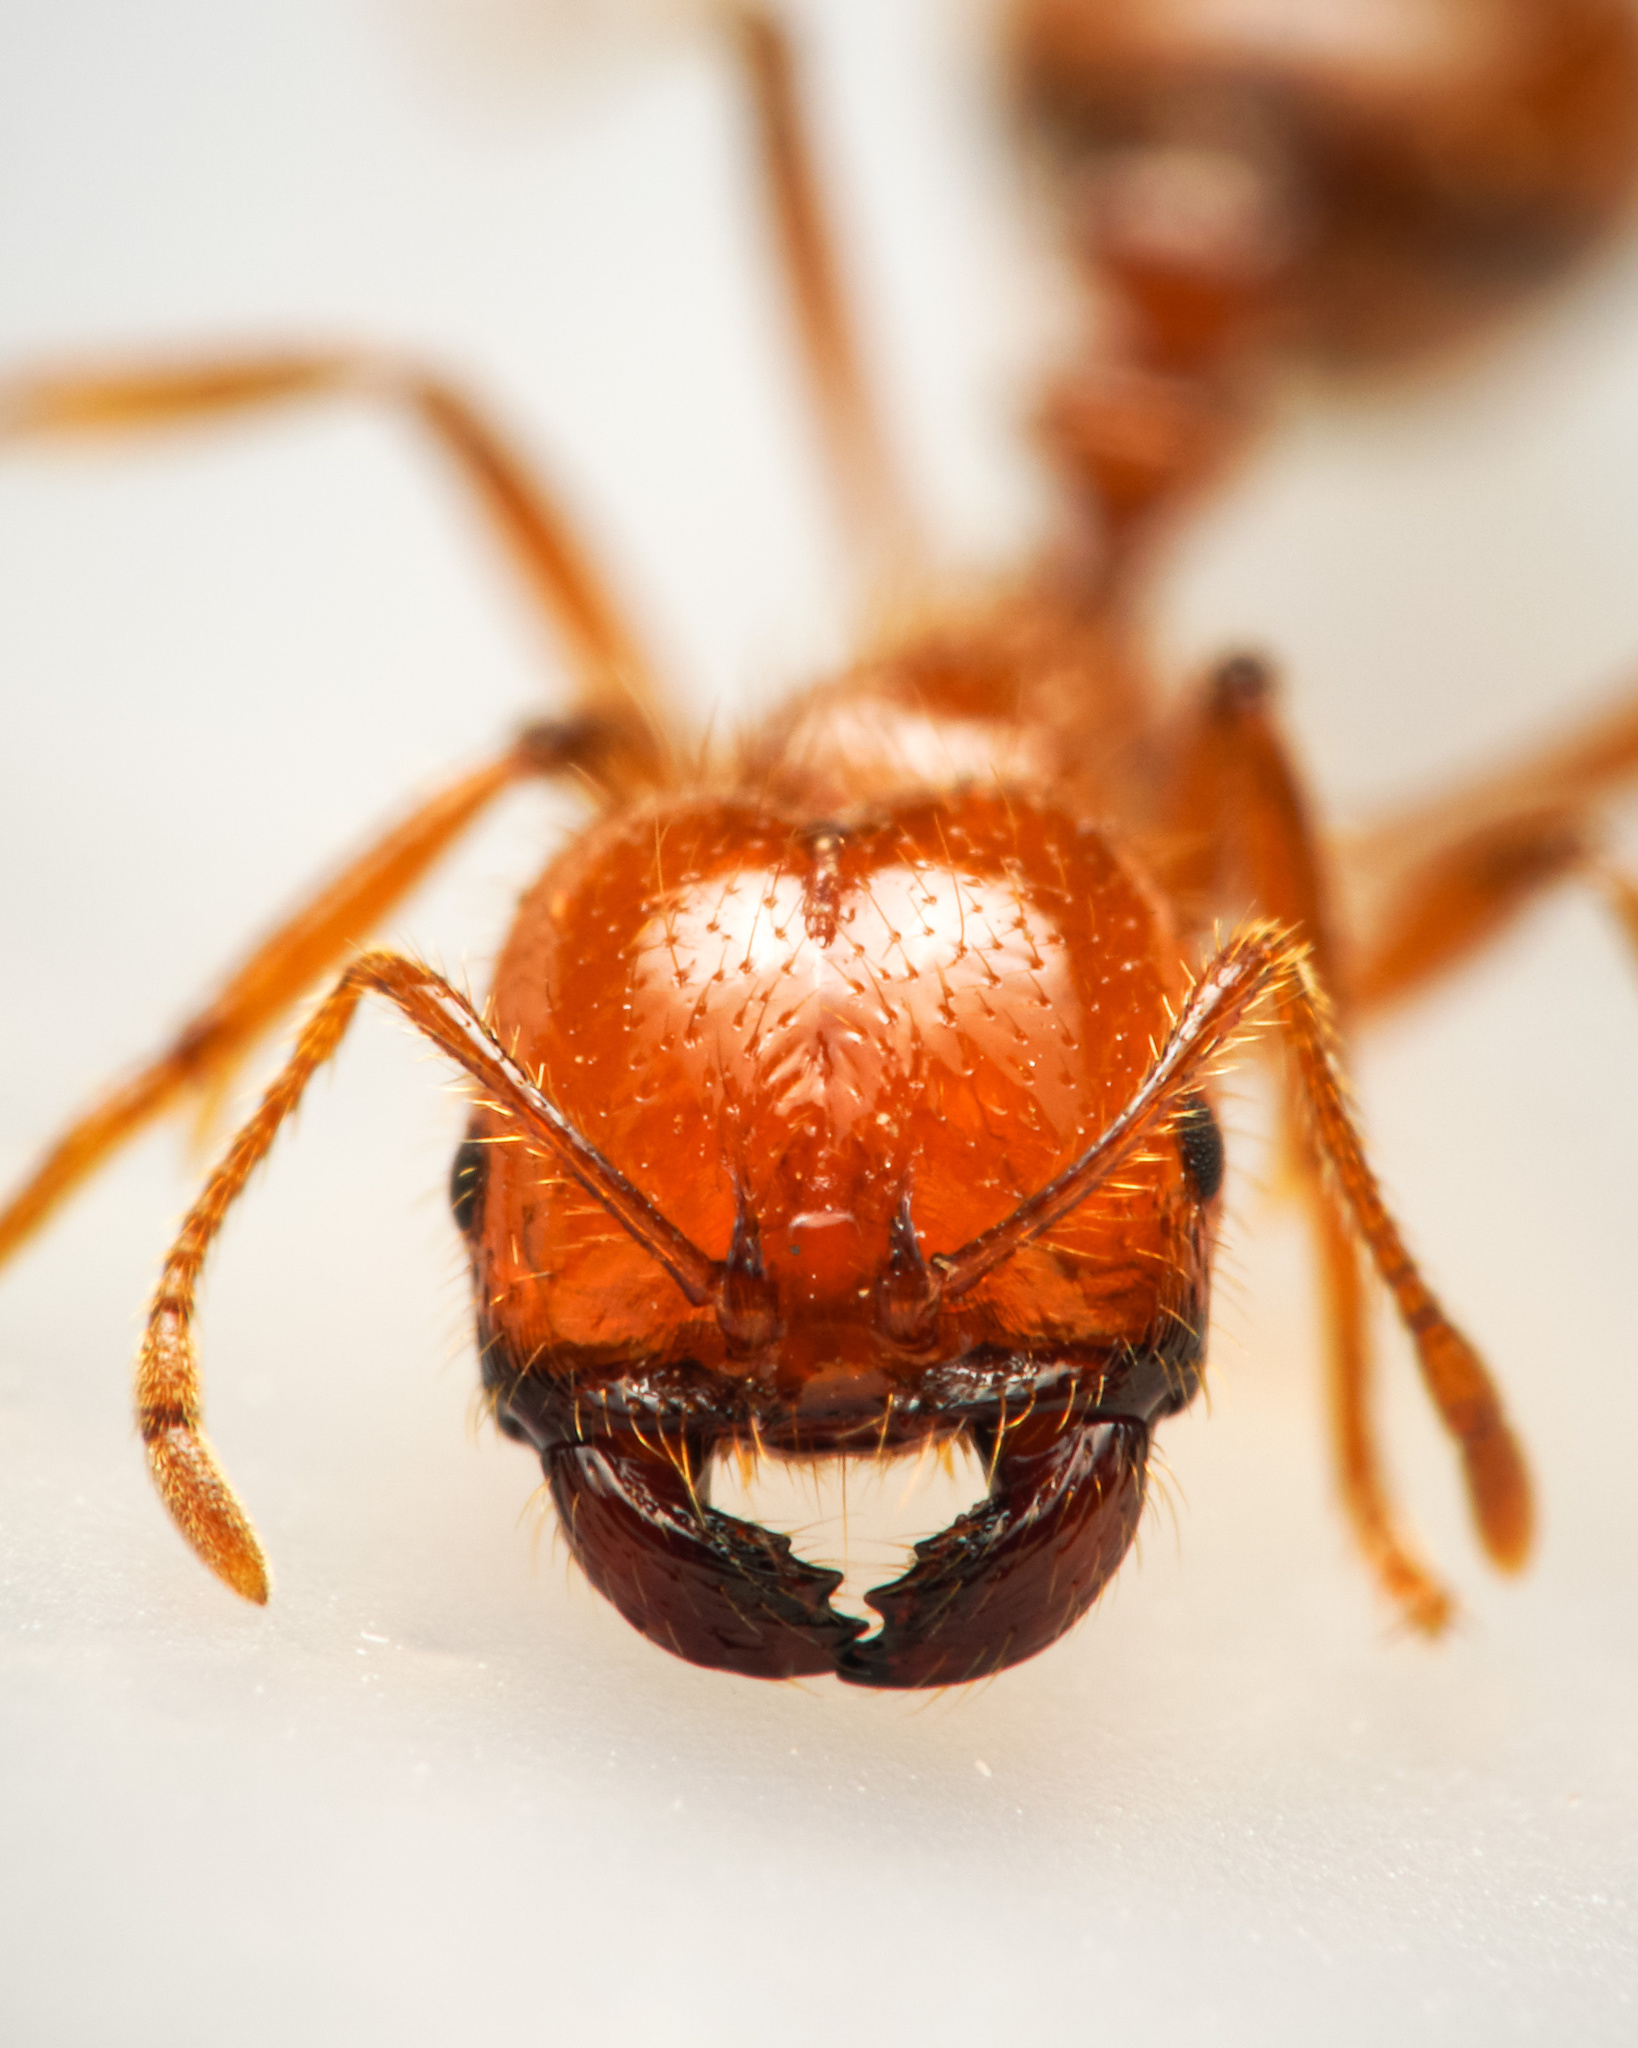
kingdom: Animalia
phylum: Arthropoda
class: Insecta
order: Hymenoptera
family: Formicidae
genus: Solenopsis
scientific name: Solenopsis geminata
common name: Tropical fire ant
